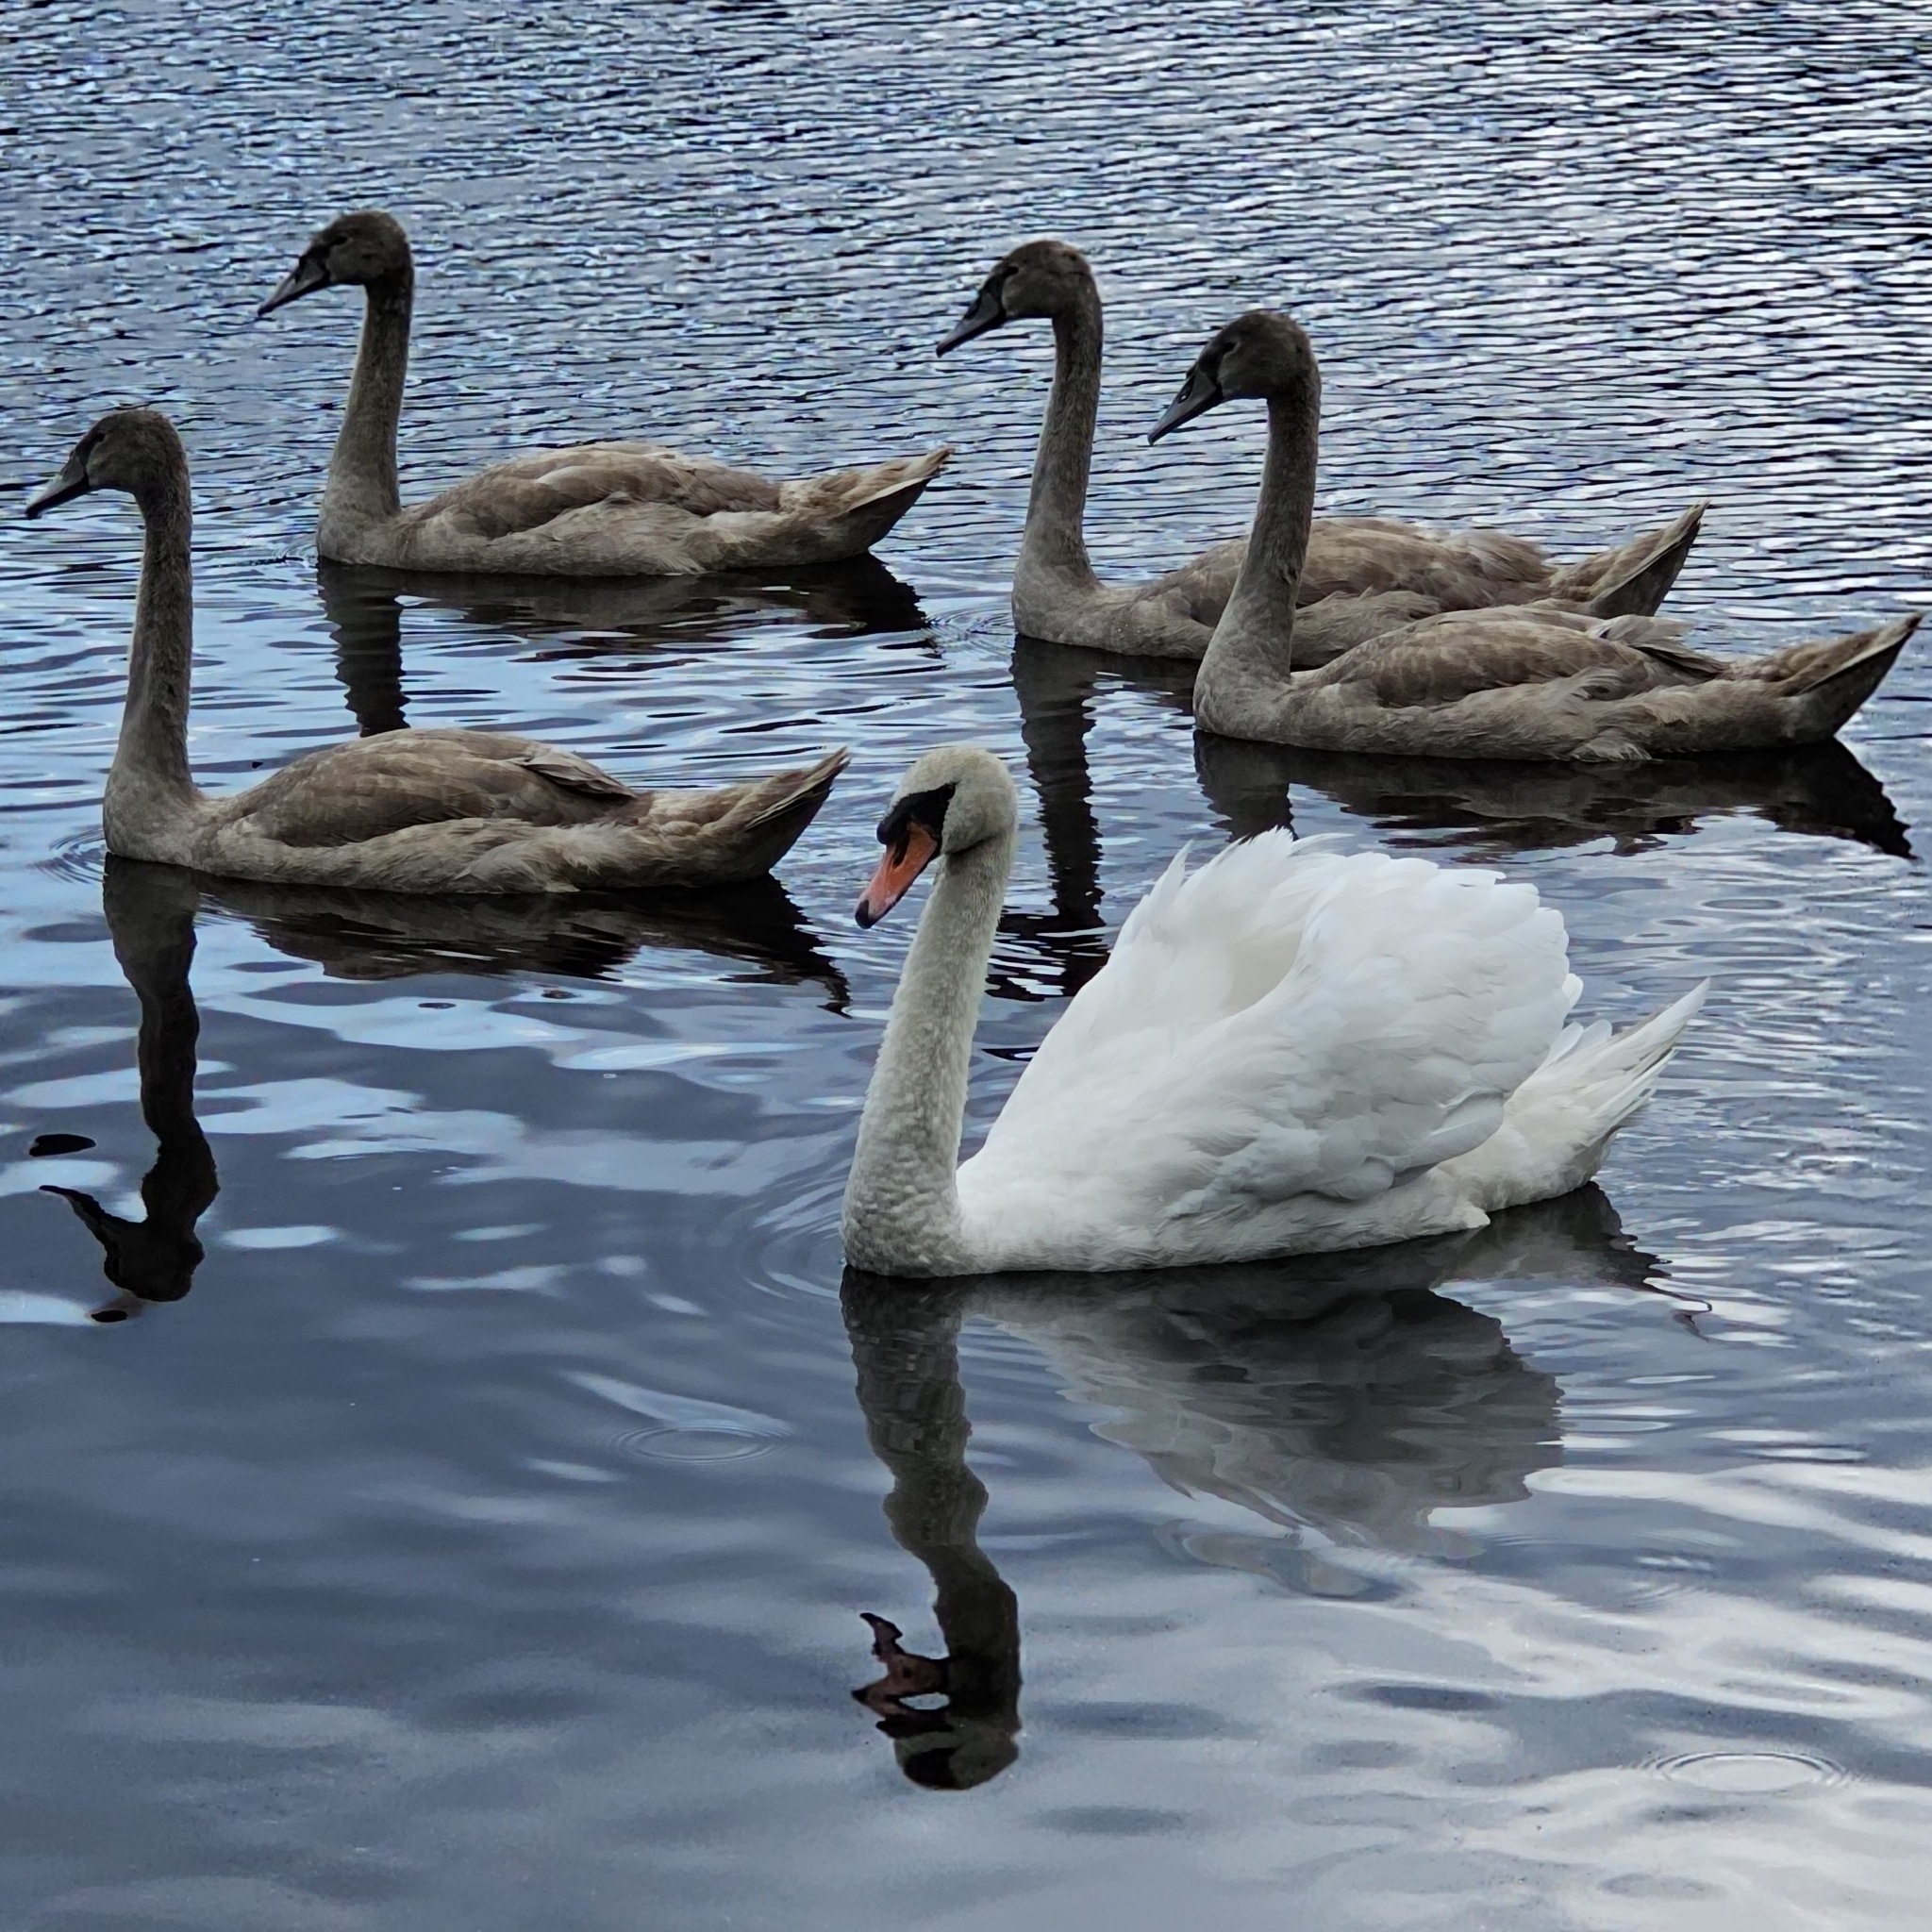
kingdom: Animalia
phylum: Chordata
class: Aves
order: Anseriformes
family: Anatidae
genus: Cygnus
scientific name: Cygnus olor
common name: Mute swan
